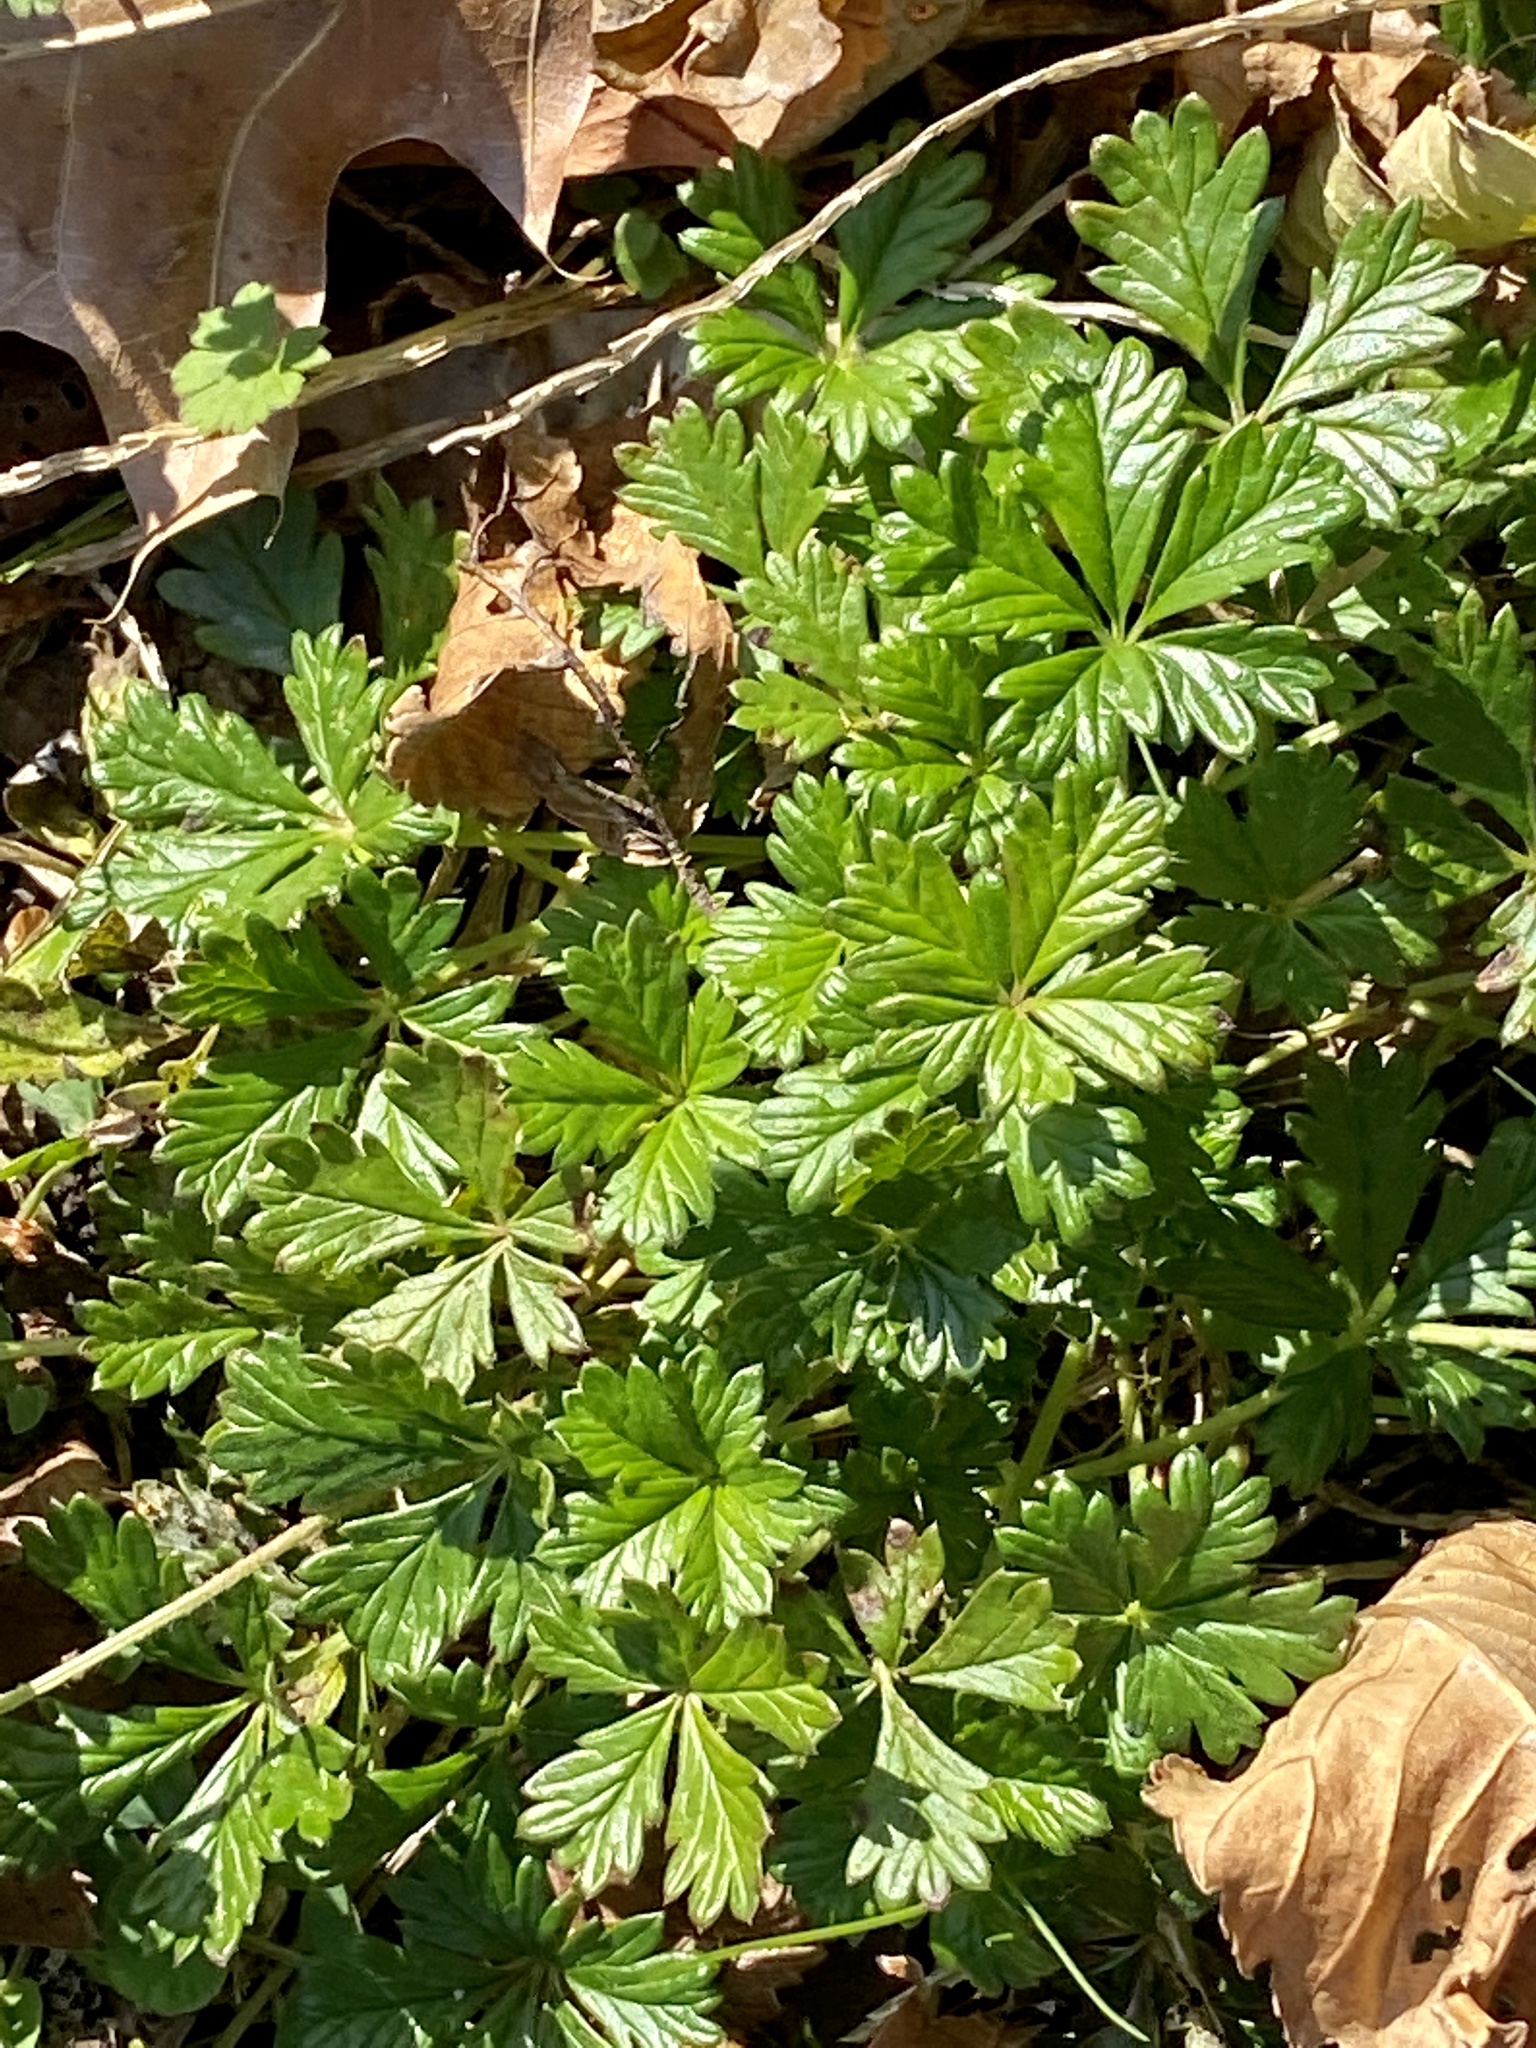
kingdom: Plantae
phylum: Tracheophyta
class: Magnoliopsida
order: Rosales
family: Rosaceae
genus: Potentilla
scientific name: Potentilla argentea
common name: Hoary cinquefoil
